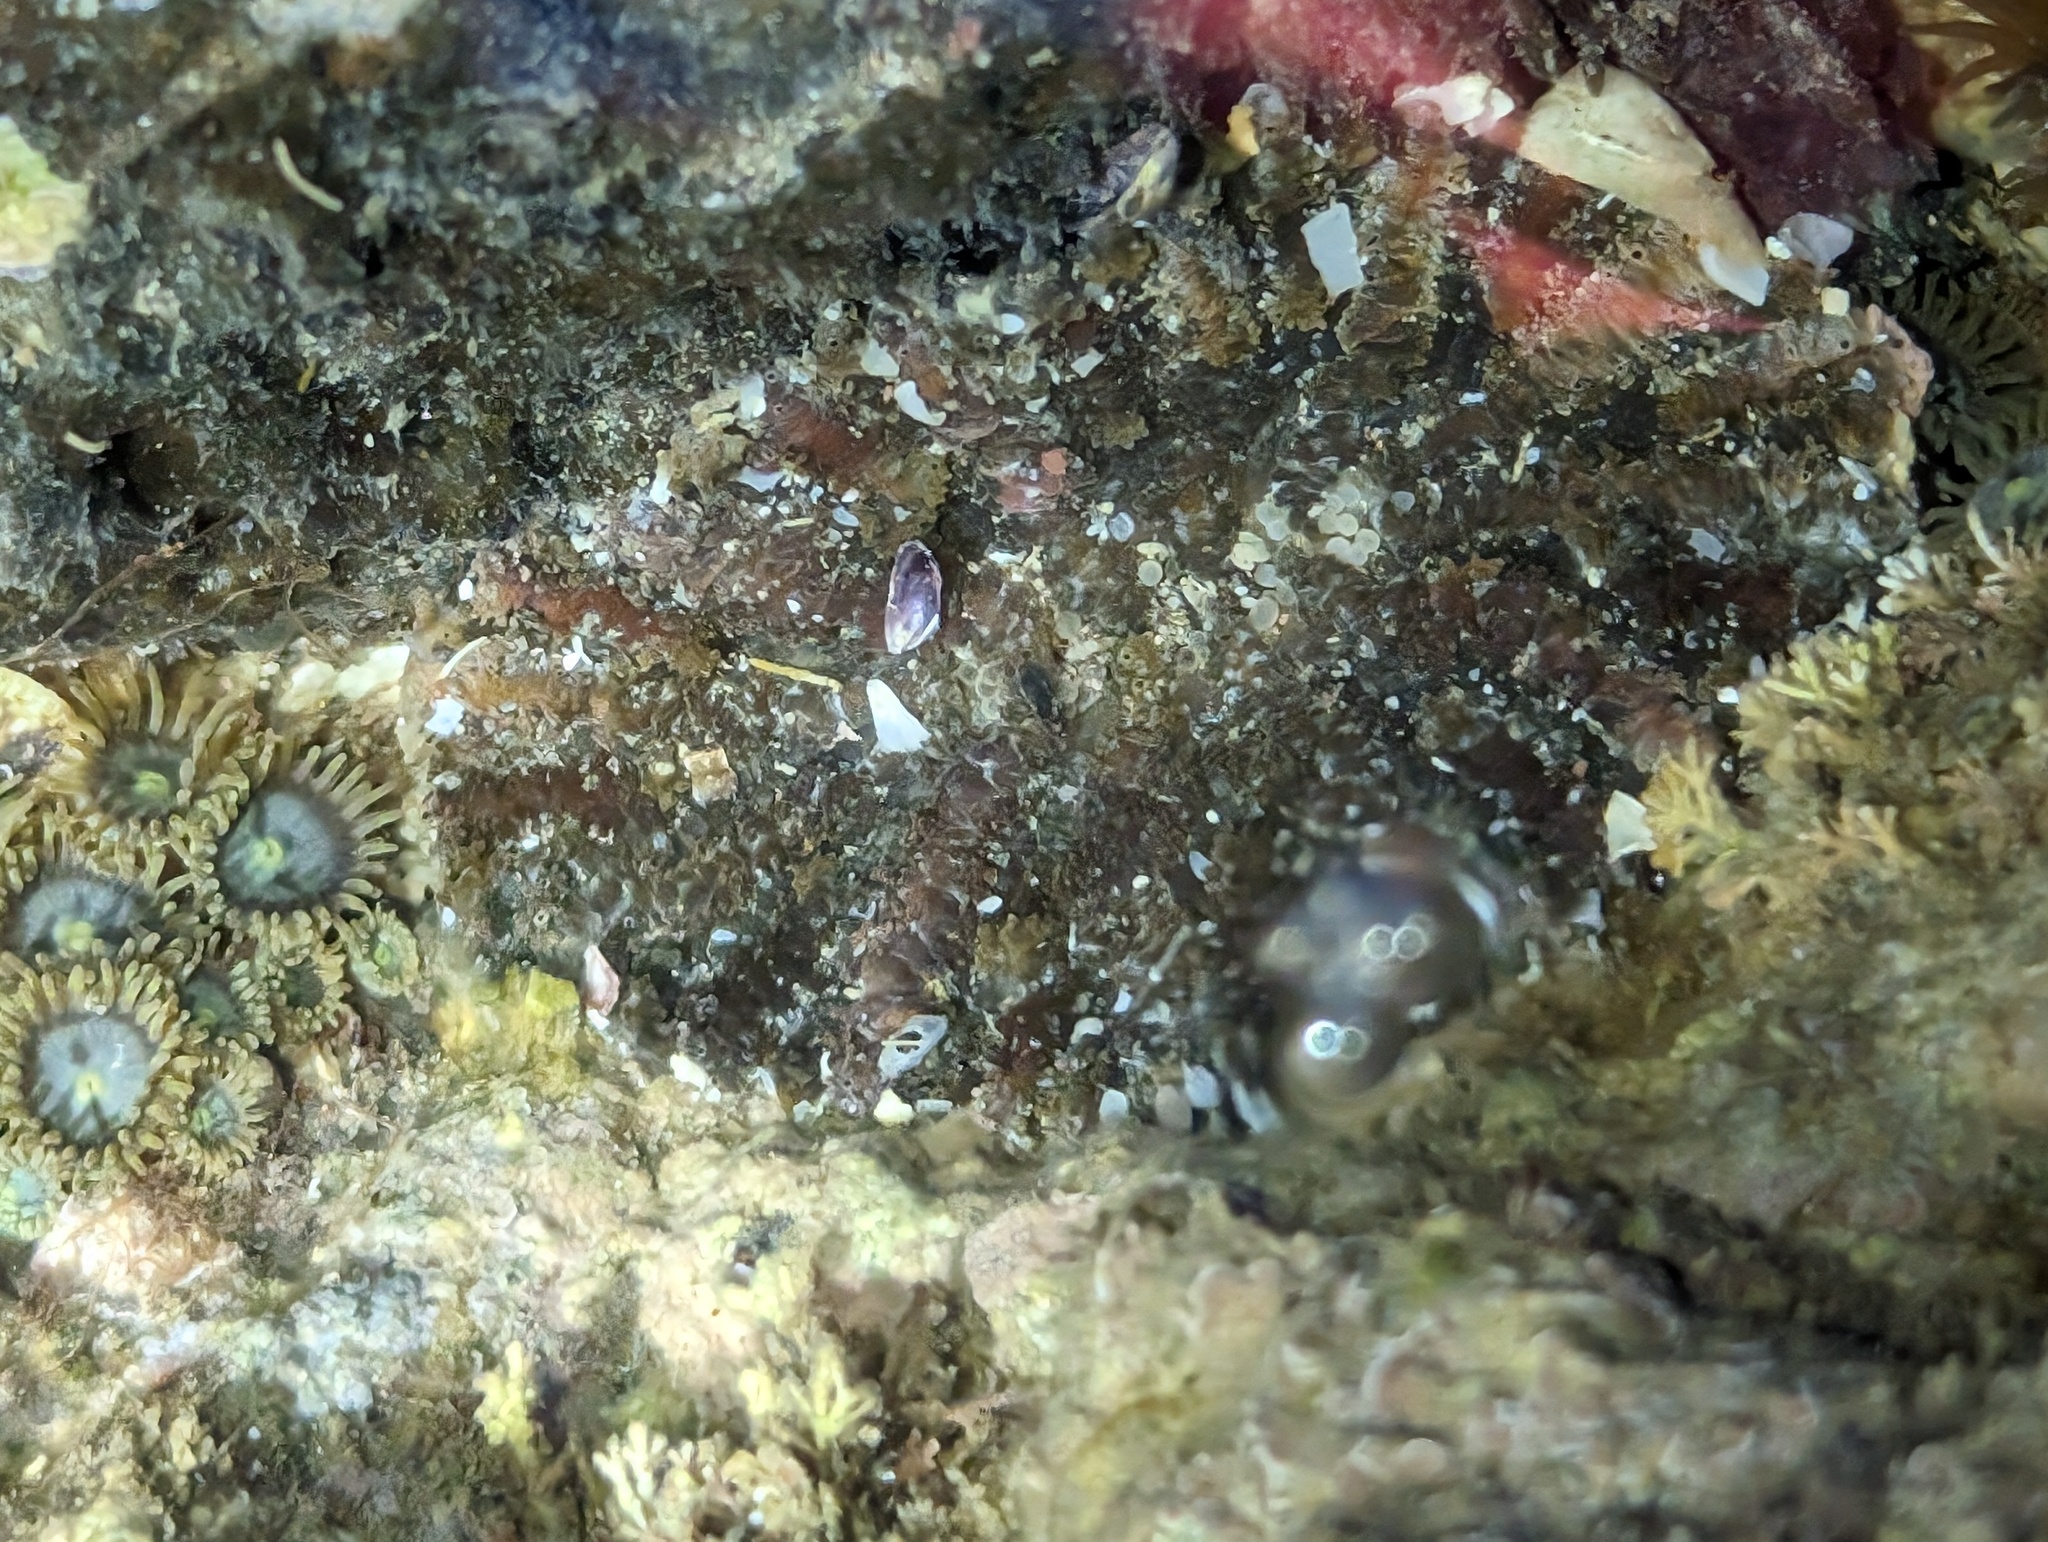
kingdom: Animalia
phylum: Cnidaria
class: Anthozoa
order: Actiniaria
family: Actiniidae
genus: Actinostella
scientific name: Actinostella bradleyi
